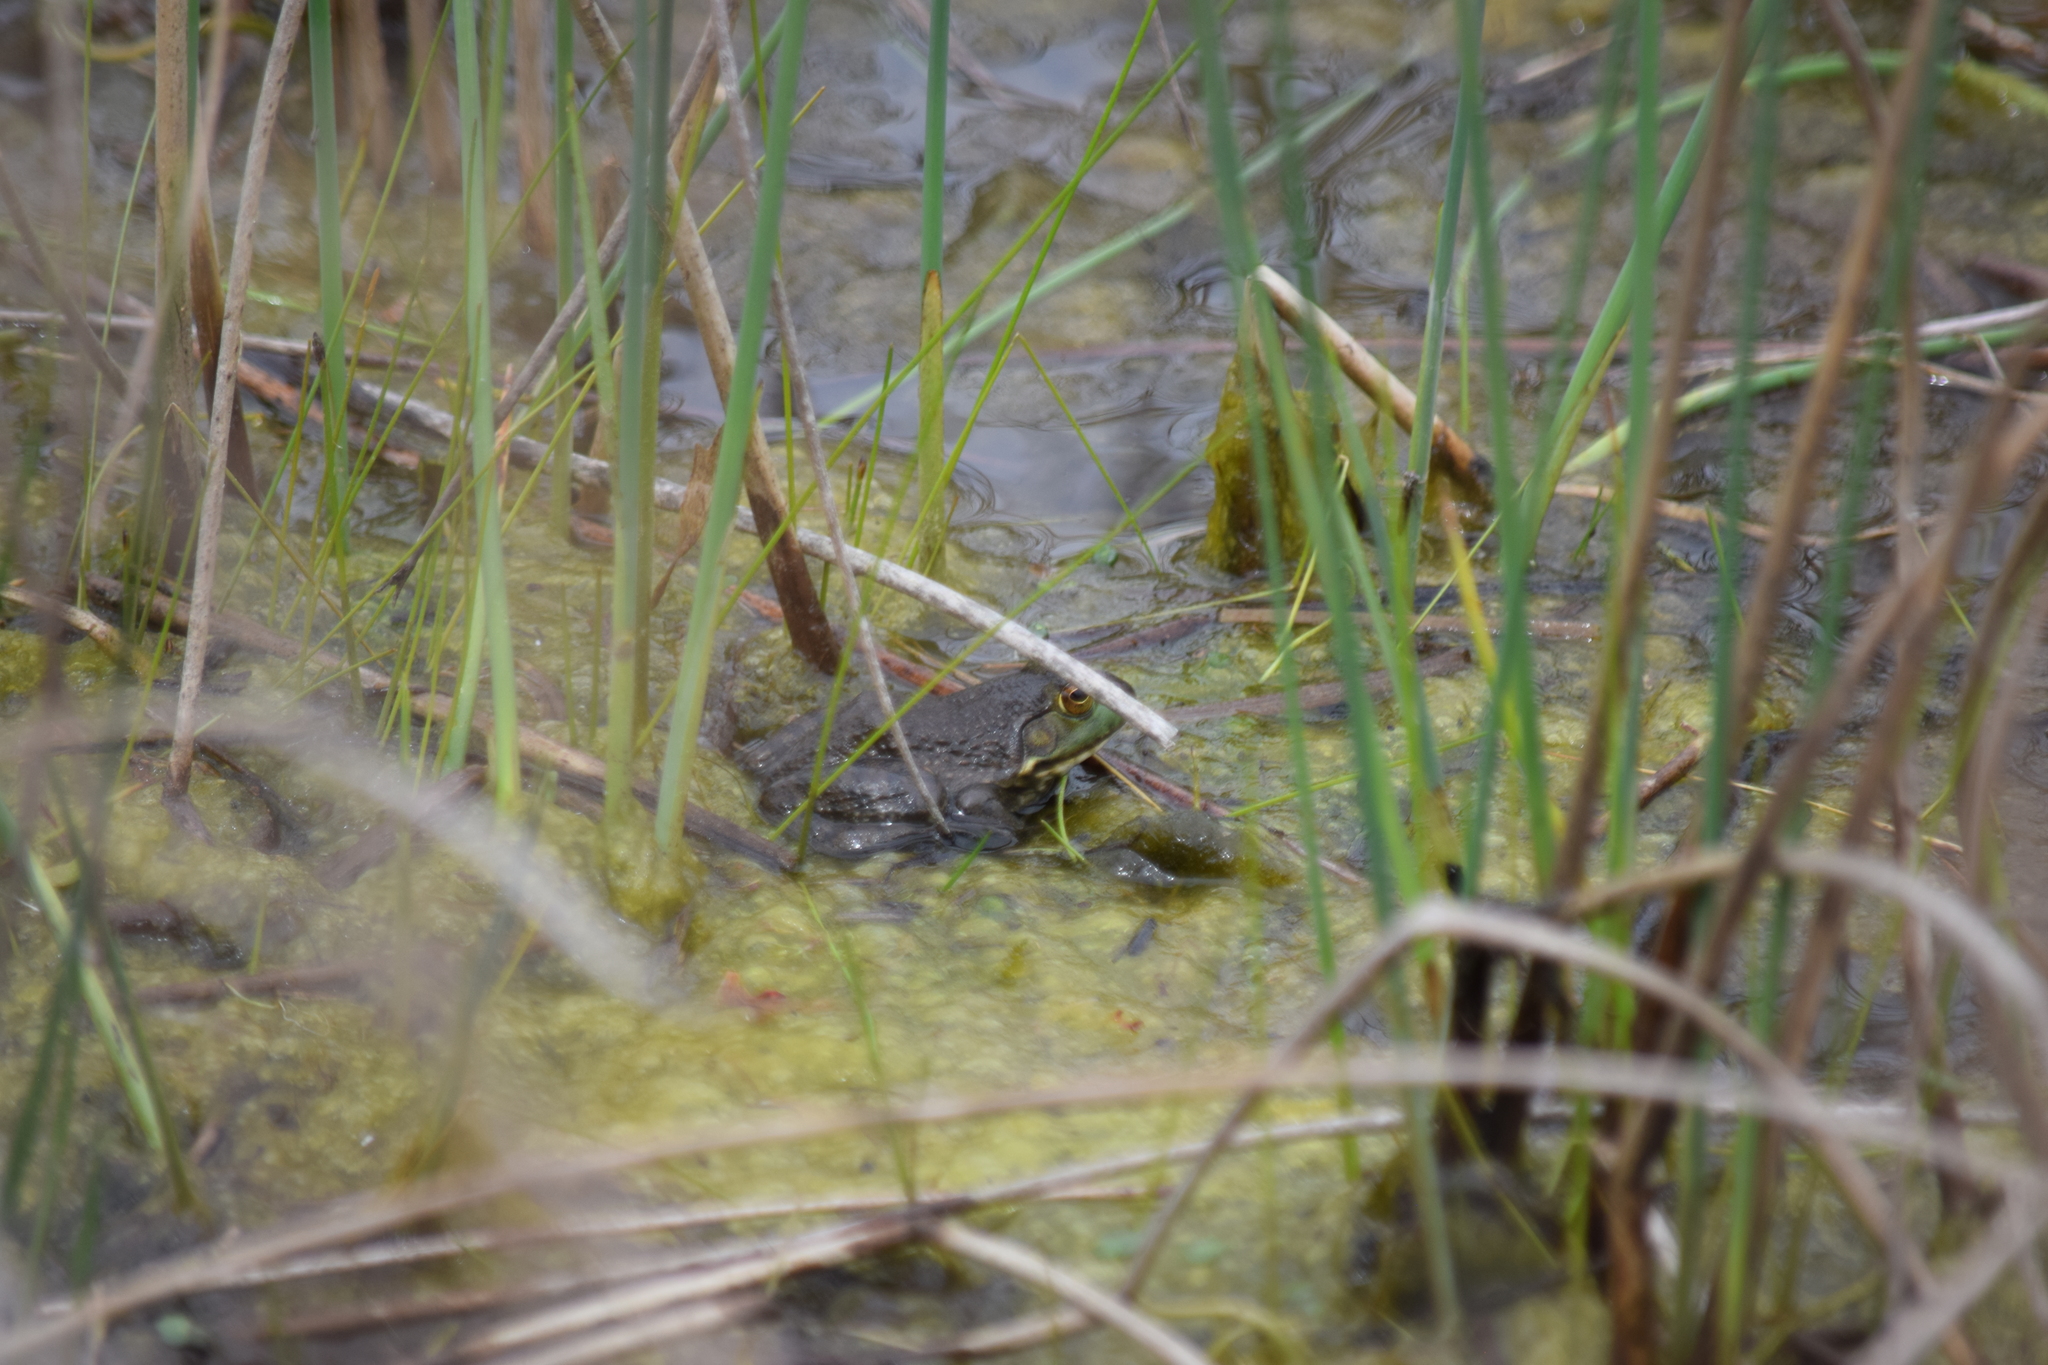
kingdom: Animalia
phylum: Chordata
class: Amphibia
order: Anura
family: Ranidae
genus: Lithobates
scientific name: Lithobates catesbeianus
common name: American bullfrog
